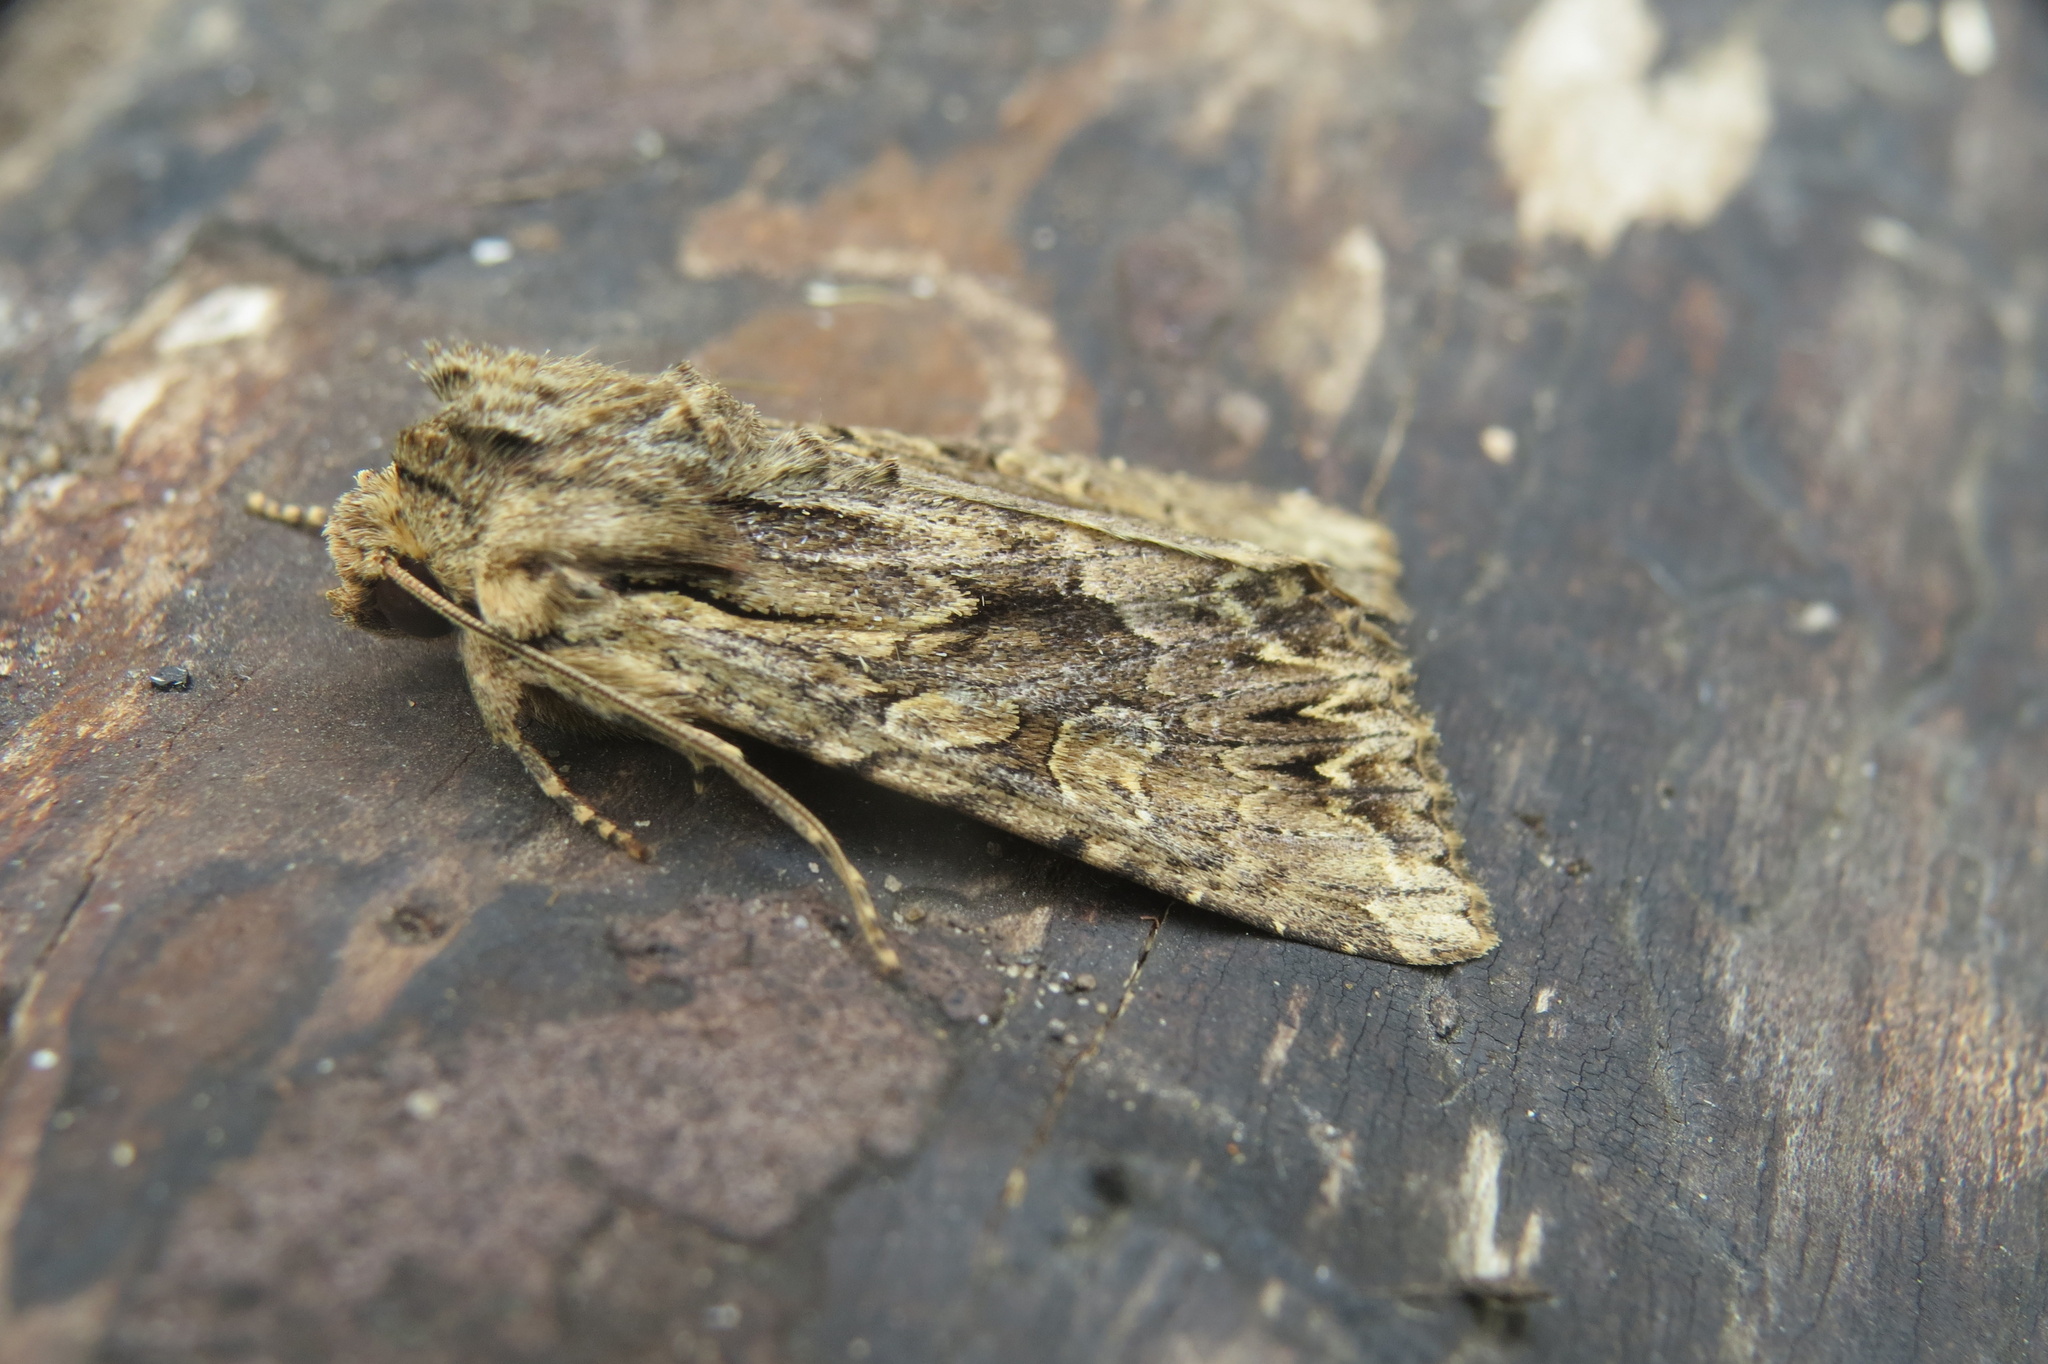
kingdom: Animalia
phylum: Arthropoda
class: Insecta
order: Lepidoptera
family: Noctuidae
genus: Apamea
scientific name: Apamea monoglypha
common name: Dark arches
